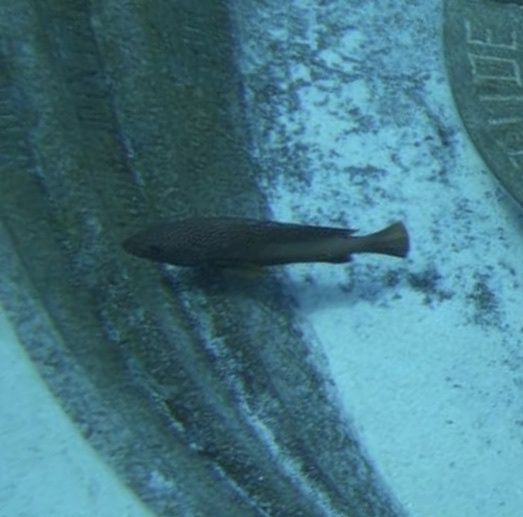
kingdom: Animalia
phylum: Chordata
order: Perciformes
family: Serranidae
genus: Cephalopholis
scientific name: Cephalopholis fulva
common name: Butterfish
